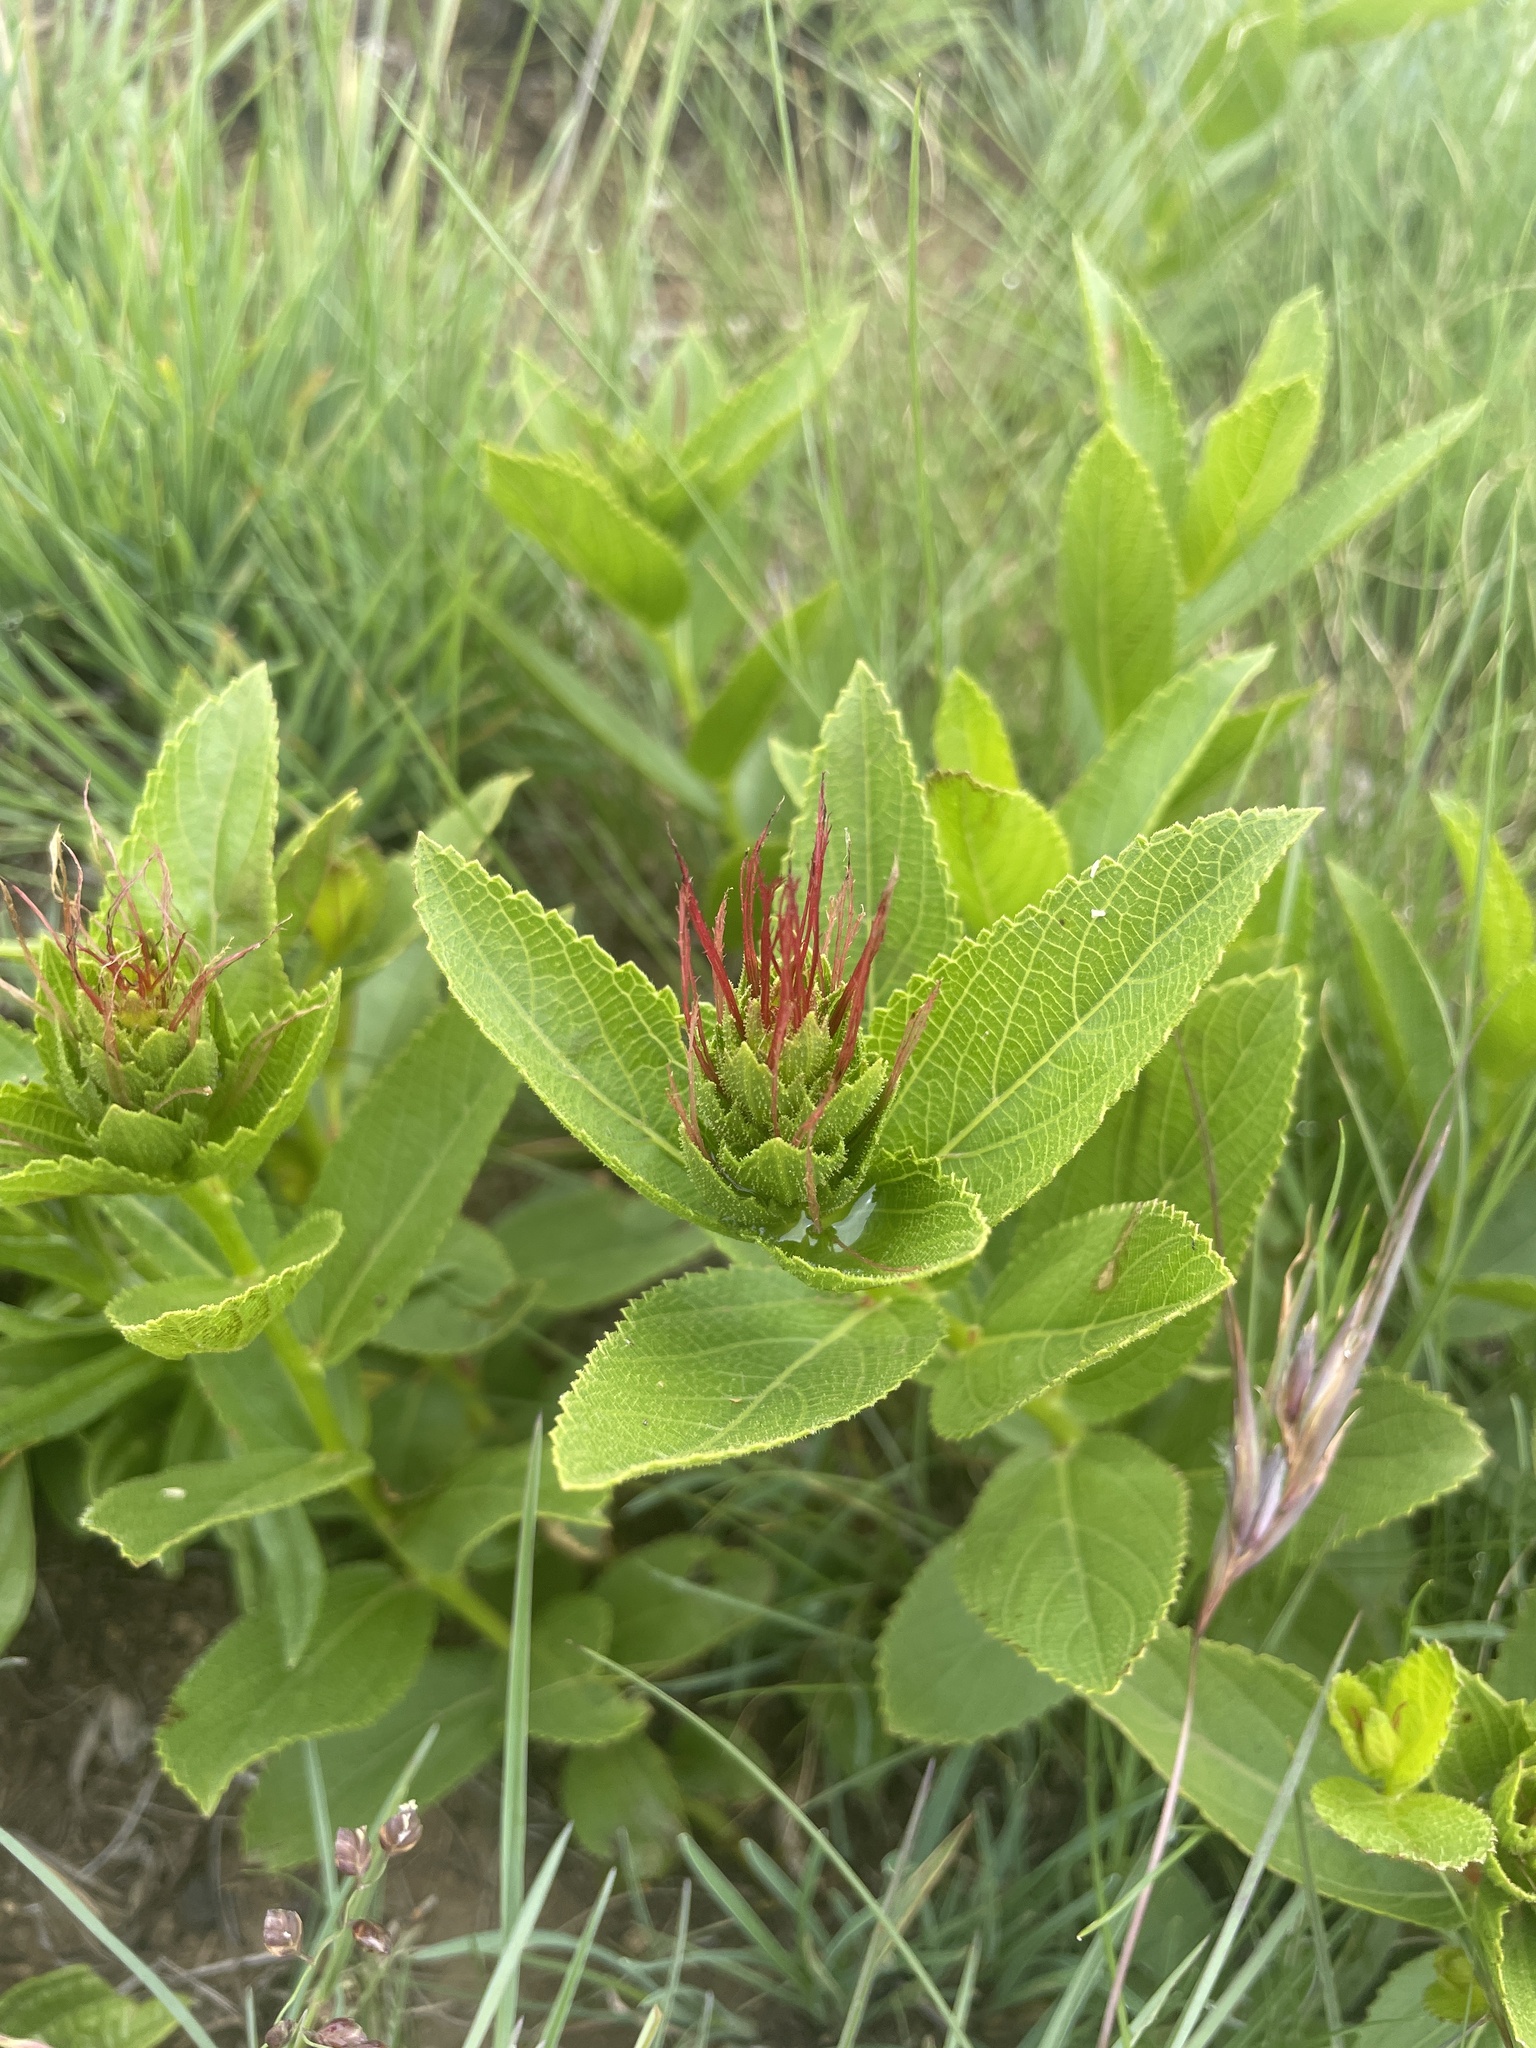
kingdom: Plantae
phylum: Tracheophyta
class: Magnoliopsida
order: Malpighiales
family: Euphorbiaceae
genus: Acalypha
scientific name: Acalypha angustata
